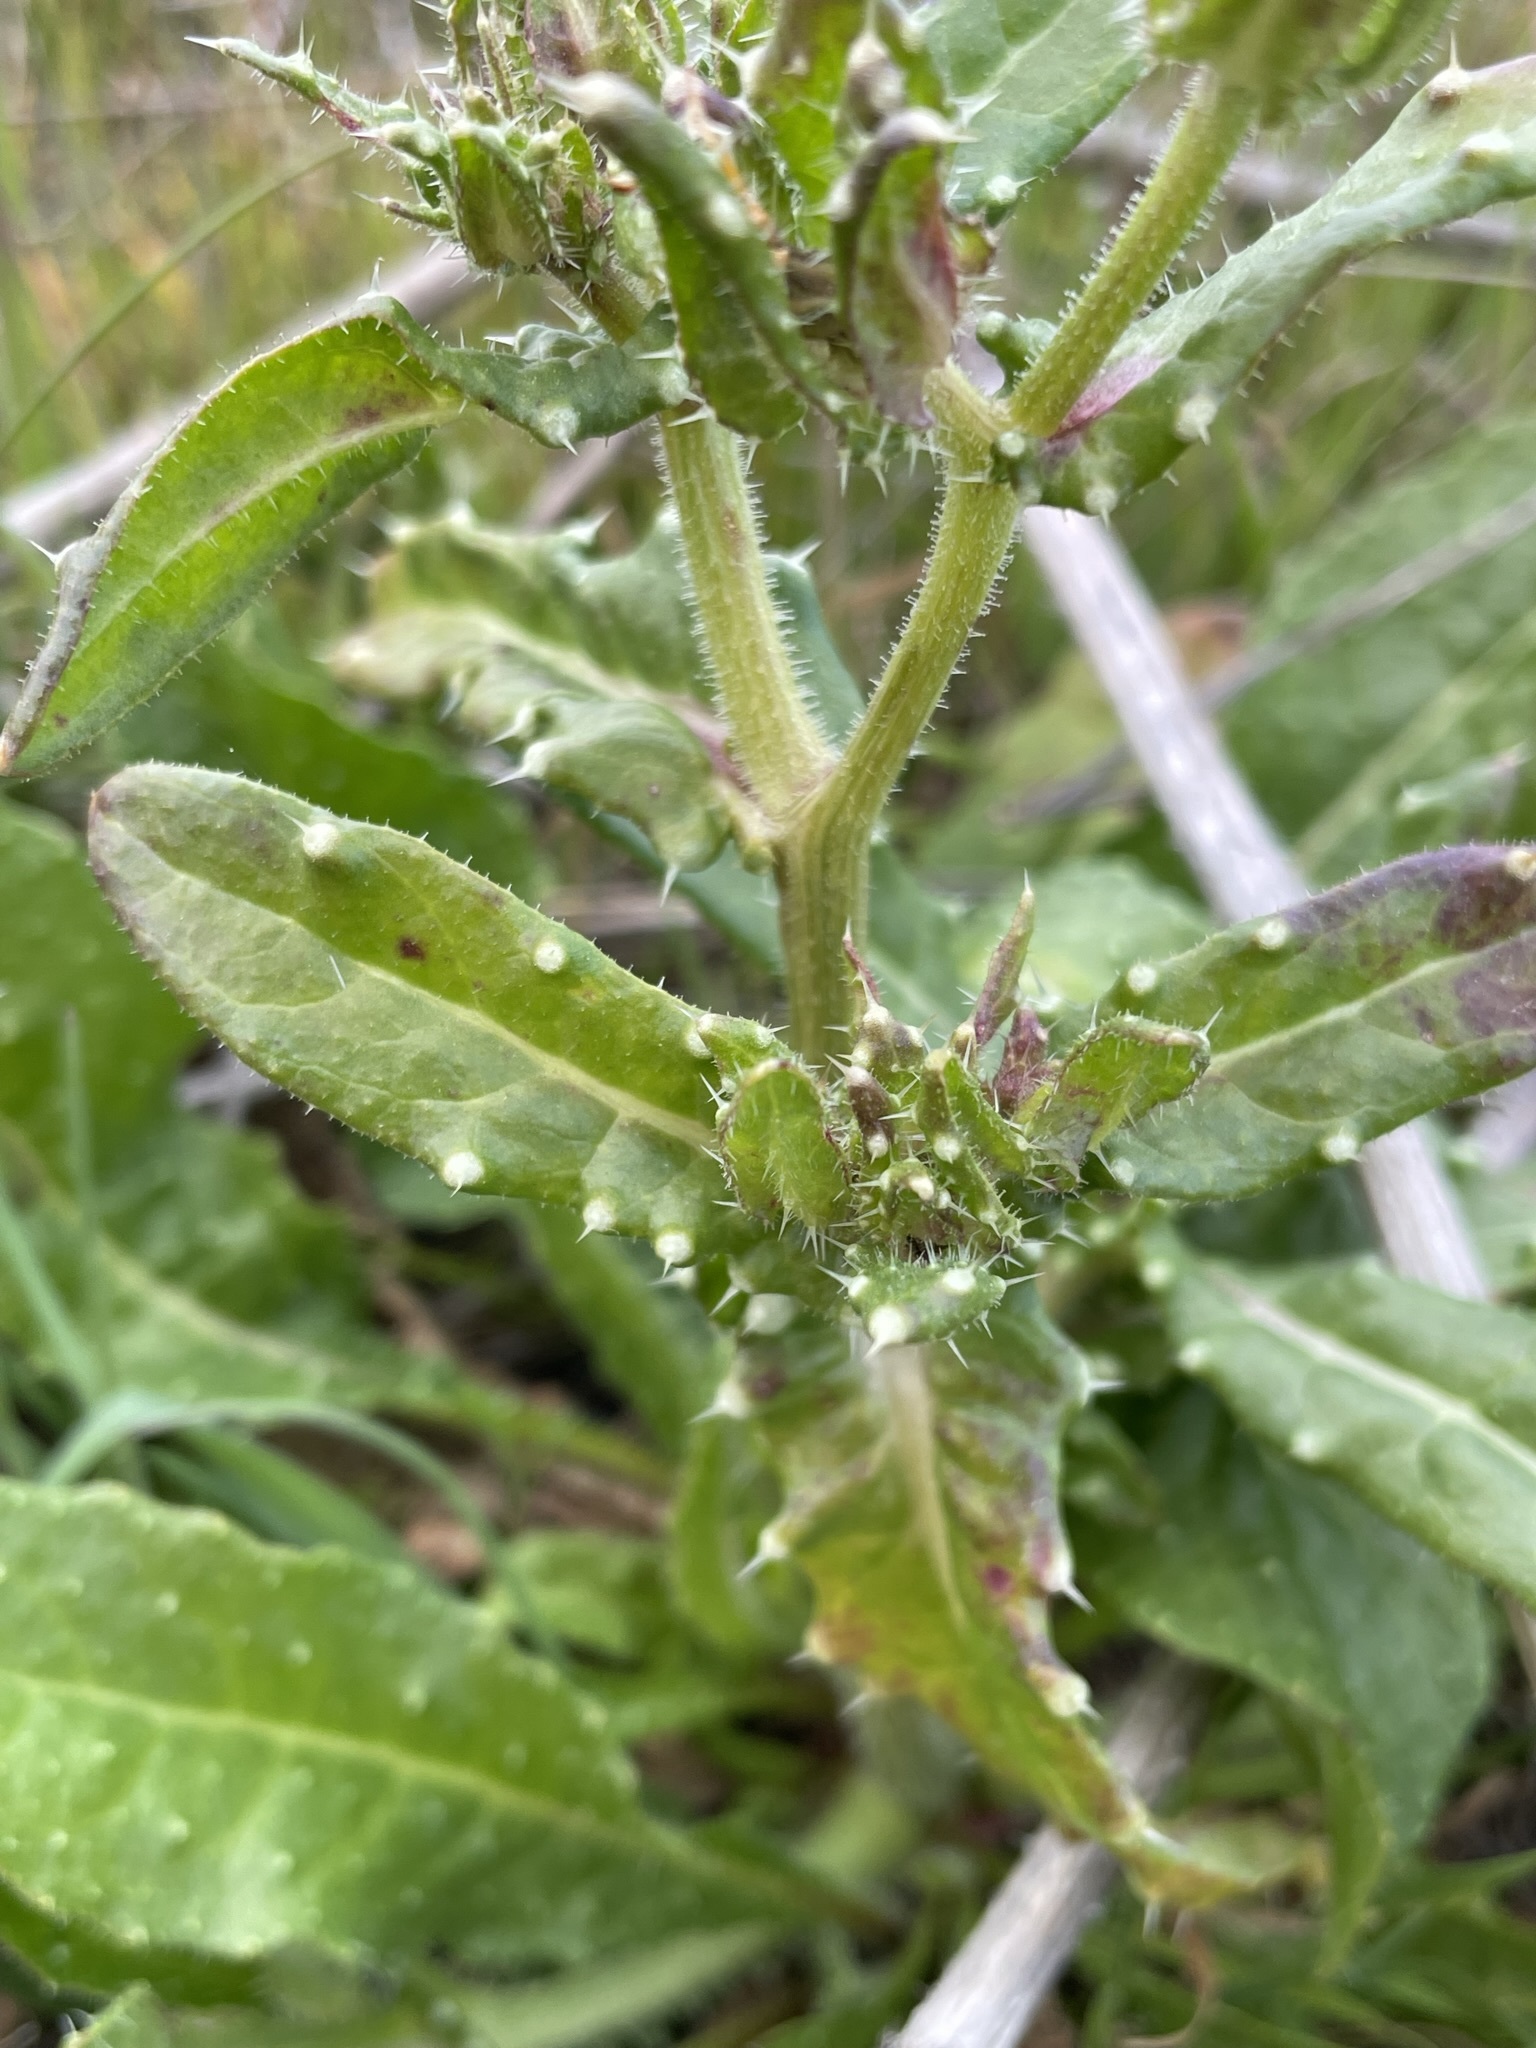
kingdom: Plantae
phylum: Tracheophyta
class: Magnoliopsida
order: Asterales
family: Asteraceae
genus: Helminthotheca
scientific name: Helminthotheca echioides
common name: Ox-tongue
